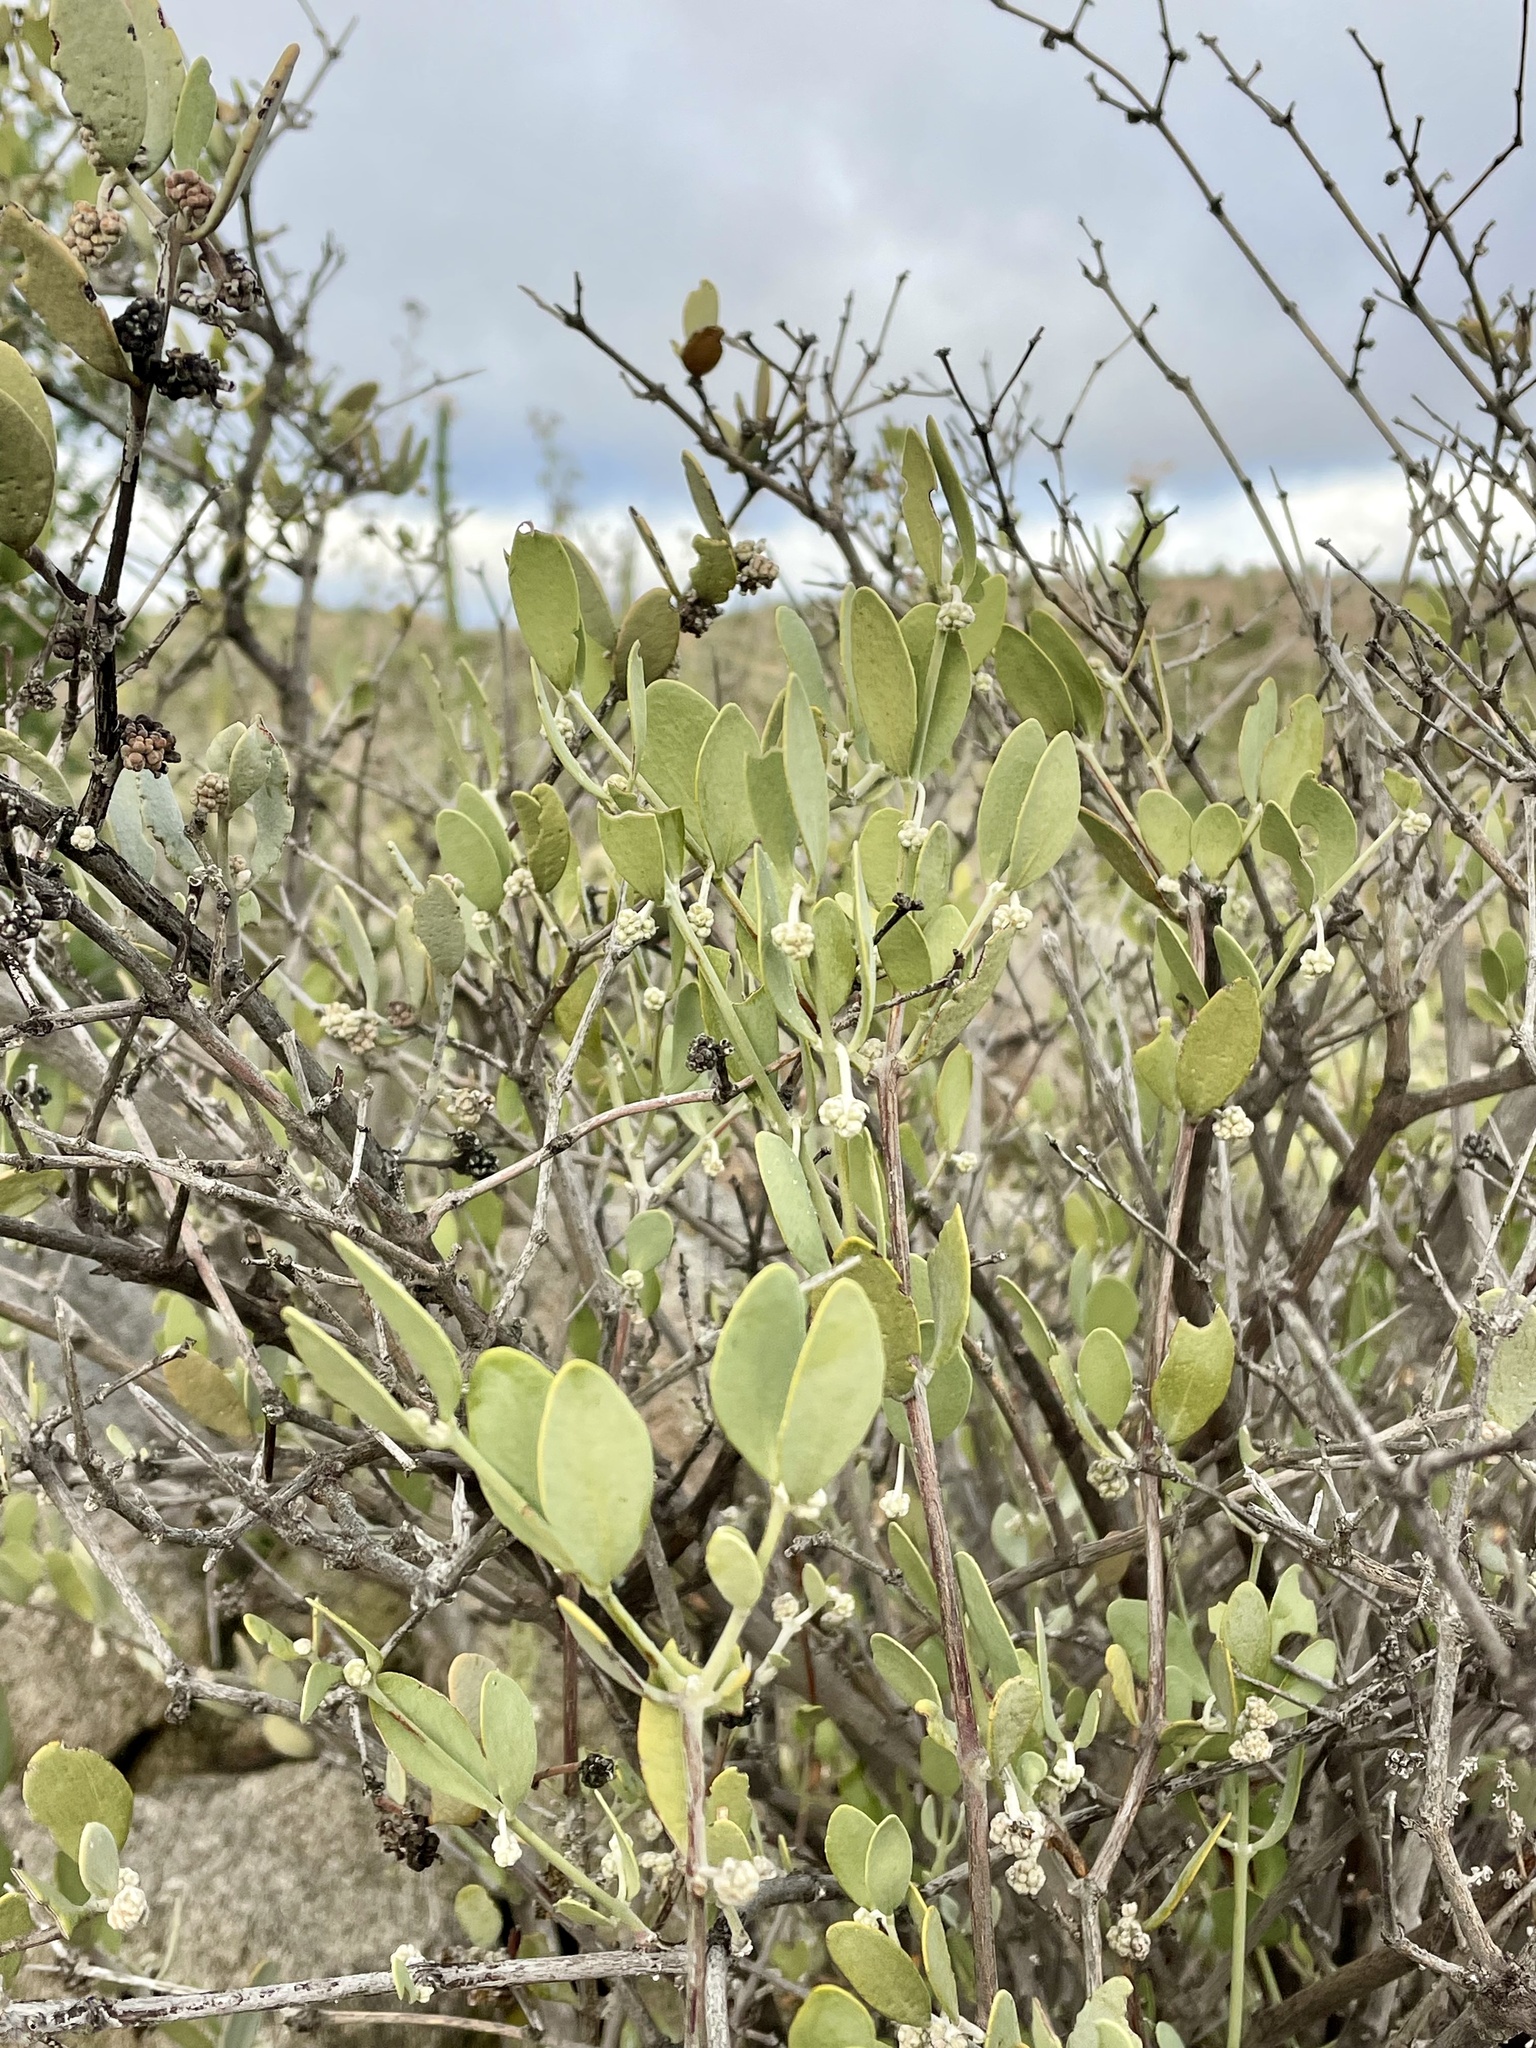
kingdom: Plantae
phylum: Tracheophyta
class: Magnoliopsida
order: Caryophyllales
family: Simmondsiaceae
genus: Simmondsia
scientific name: Simmondsia chinensis
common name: Jojoba
